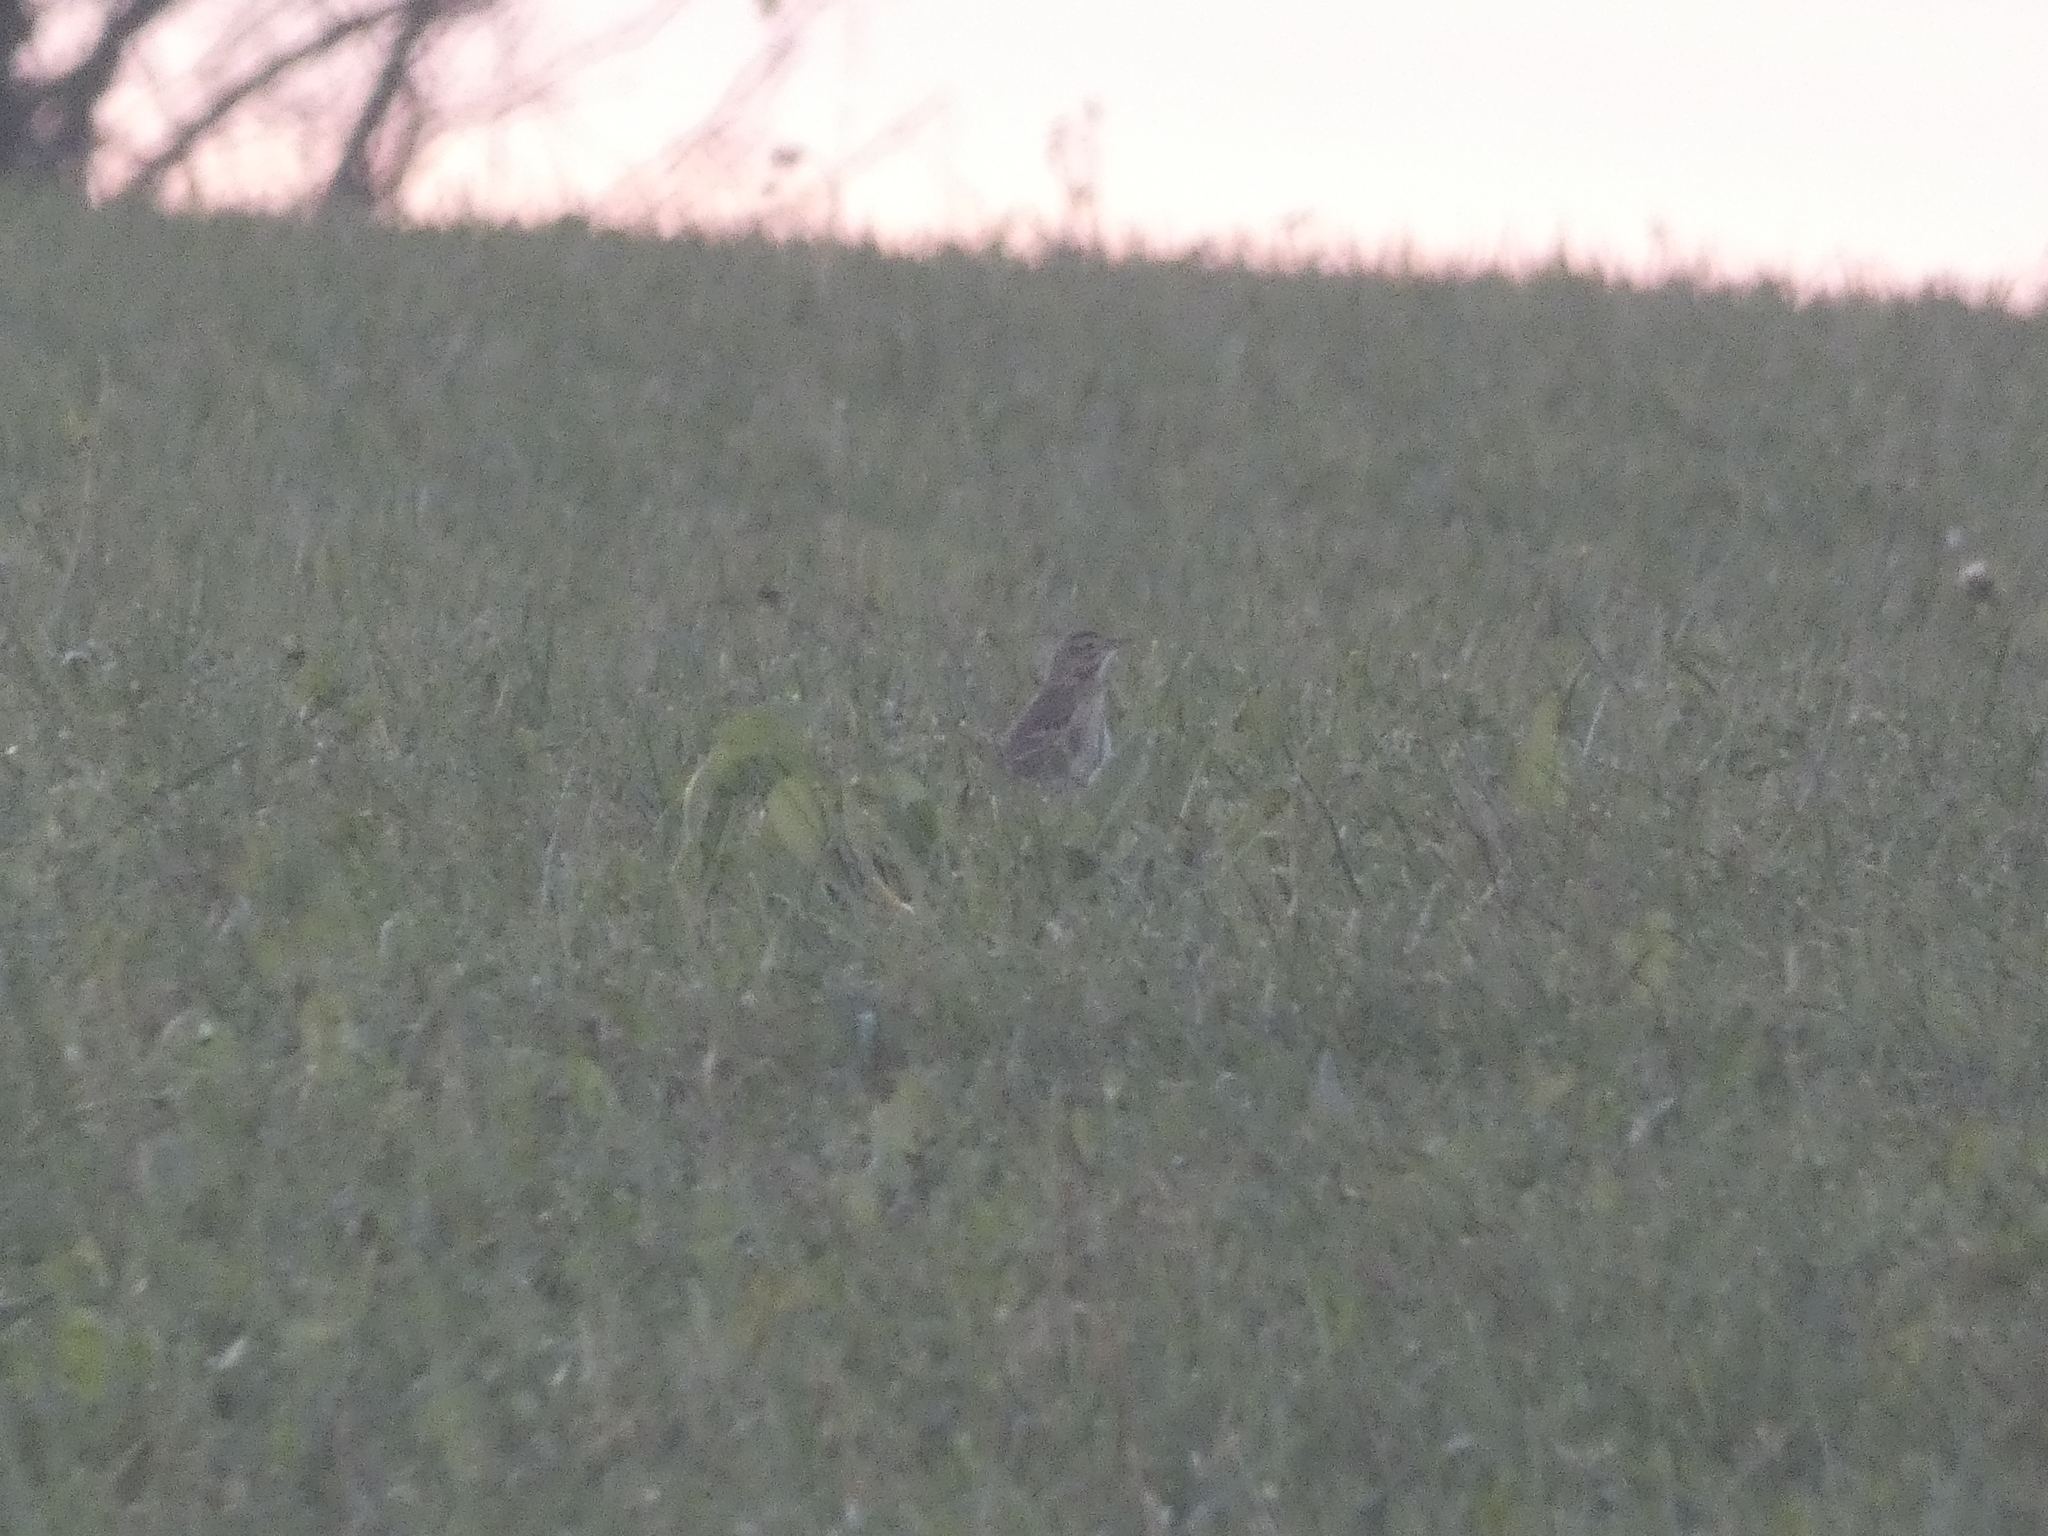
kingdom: Animalia
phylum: Chordata
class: Aves
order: Passeriformes
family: Motacillidae
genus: Anthus
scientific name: Anthus richardi
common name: Richard's pipit
